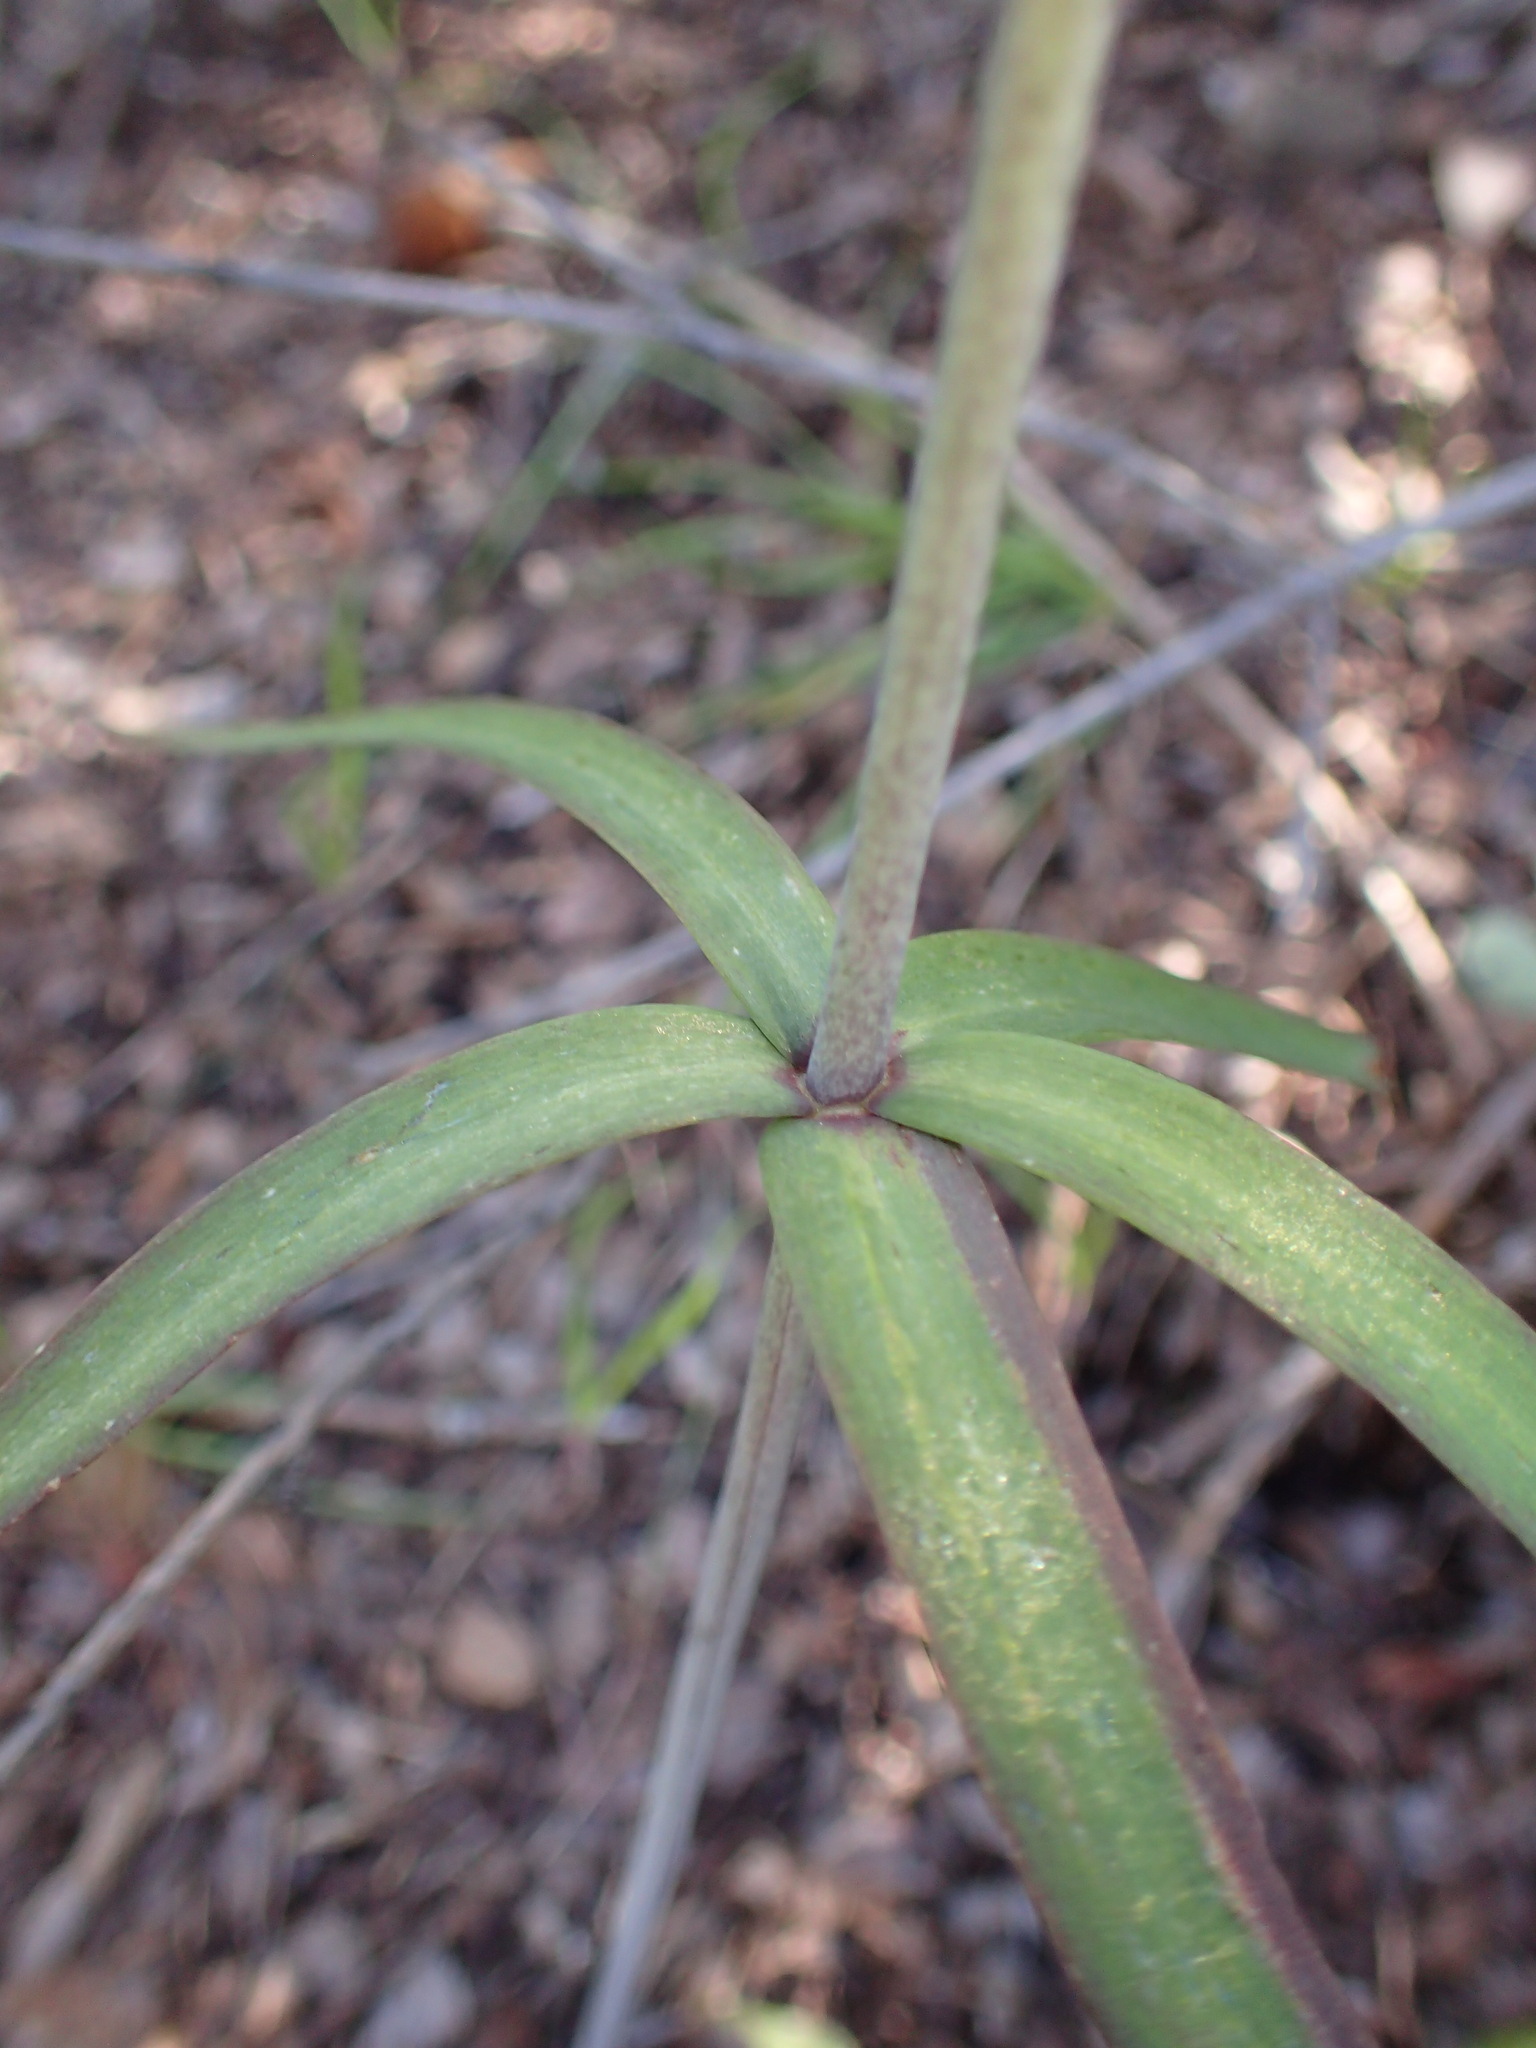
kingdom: Plantae
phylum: Tracheophyta
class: Liliopsida
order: Liliales
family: Liliaceae
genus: Fritillaria
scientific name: Fritillaria ojaiensis
